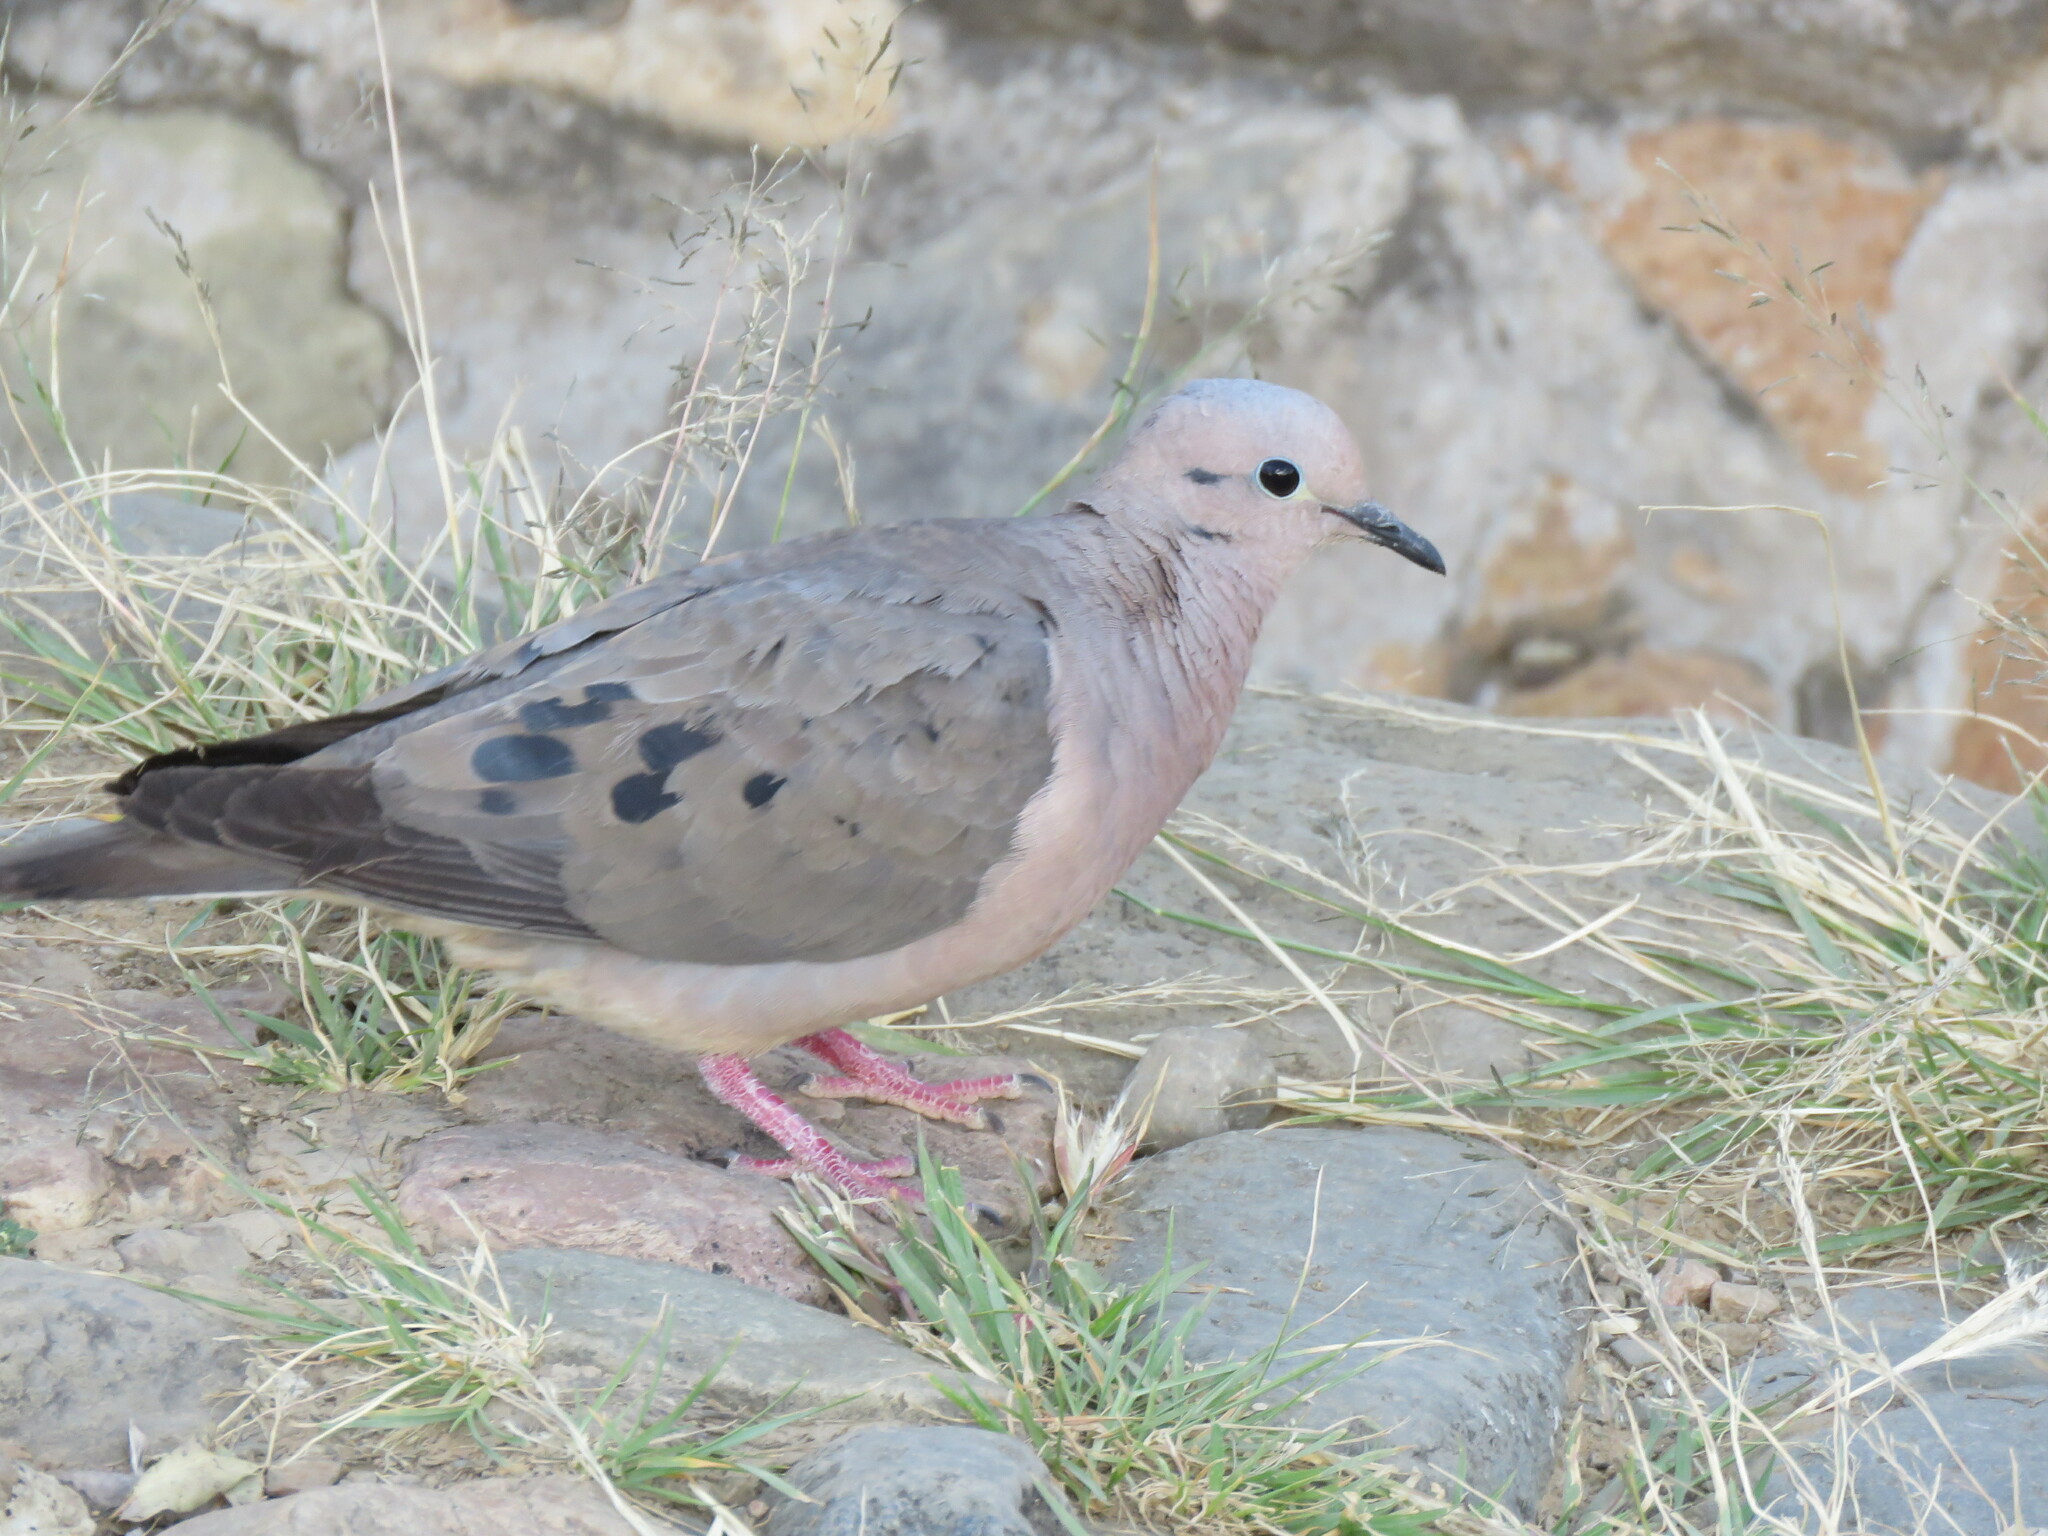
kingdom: Animalia
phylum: Chordata
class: Aves
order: Columbiformes
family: Columbidae
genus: Zenaida
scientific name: Zenaida auriculata
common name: Eared dove
